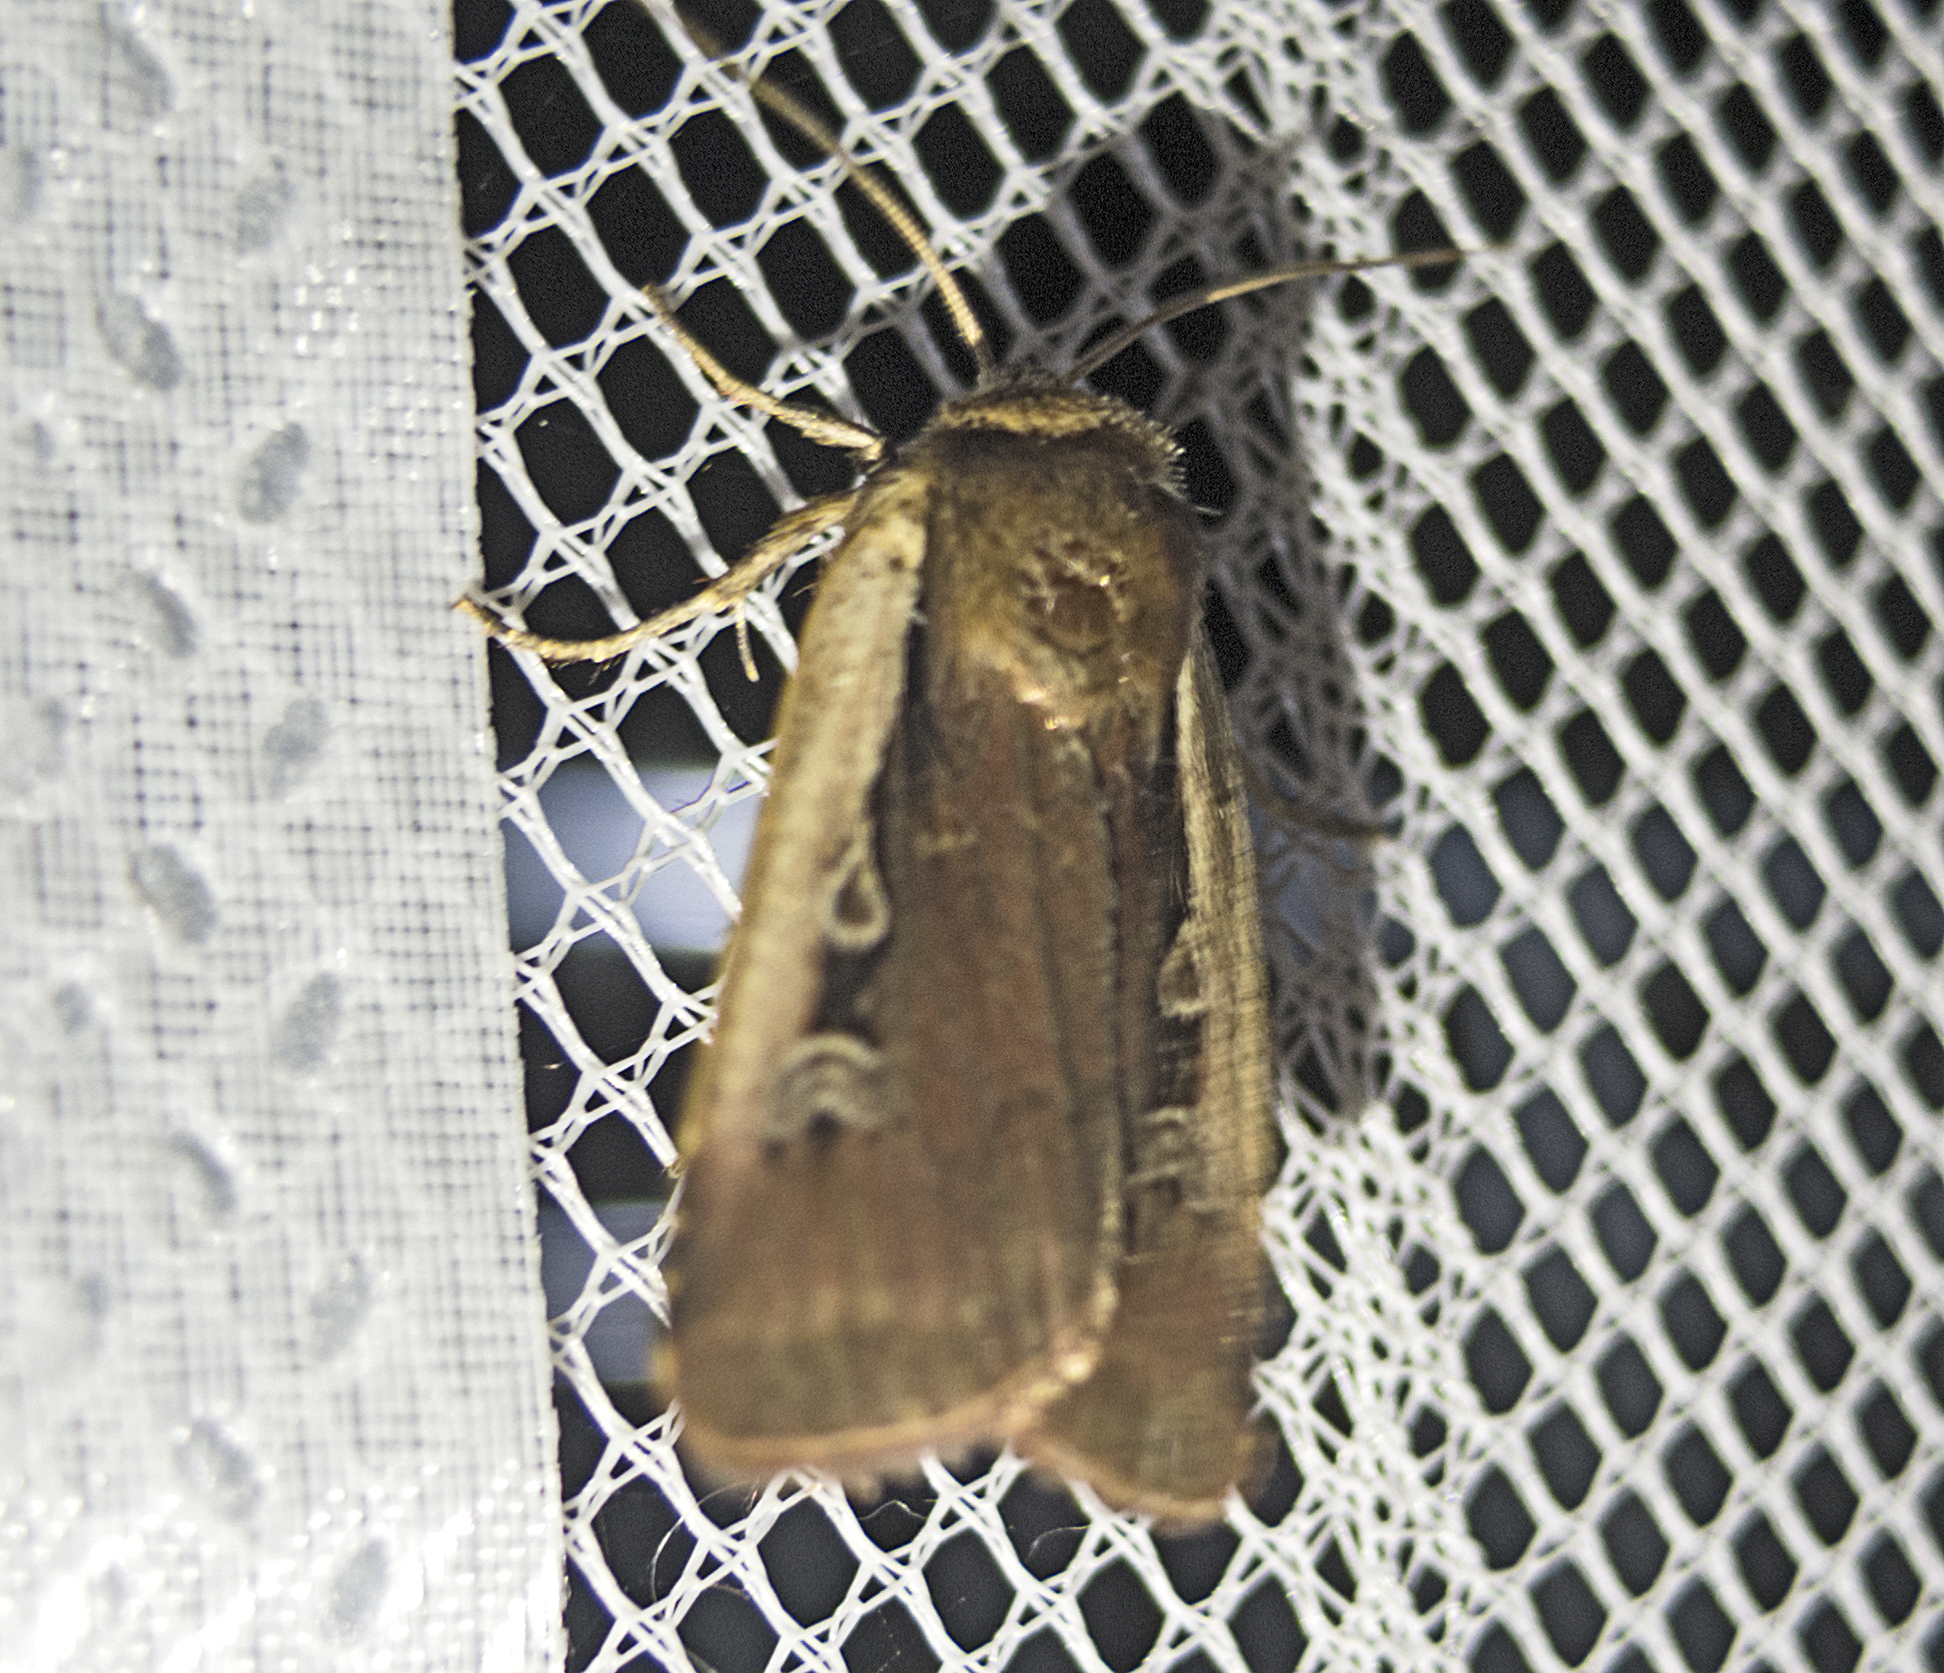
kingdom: Animalia
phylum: Arthropoda
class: Insecta
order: Lepidoptera
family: Noctuidae
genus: Ochropleura
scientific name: Ochropleura plecta
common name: Flame shoulder
